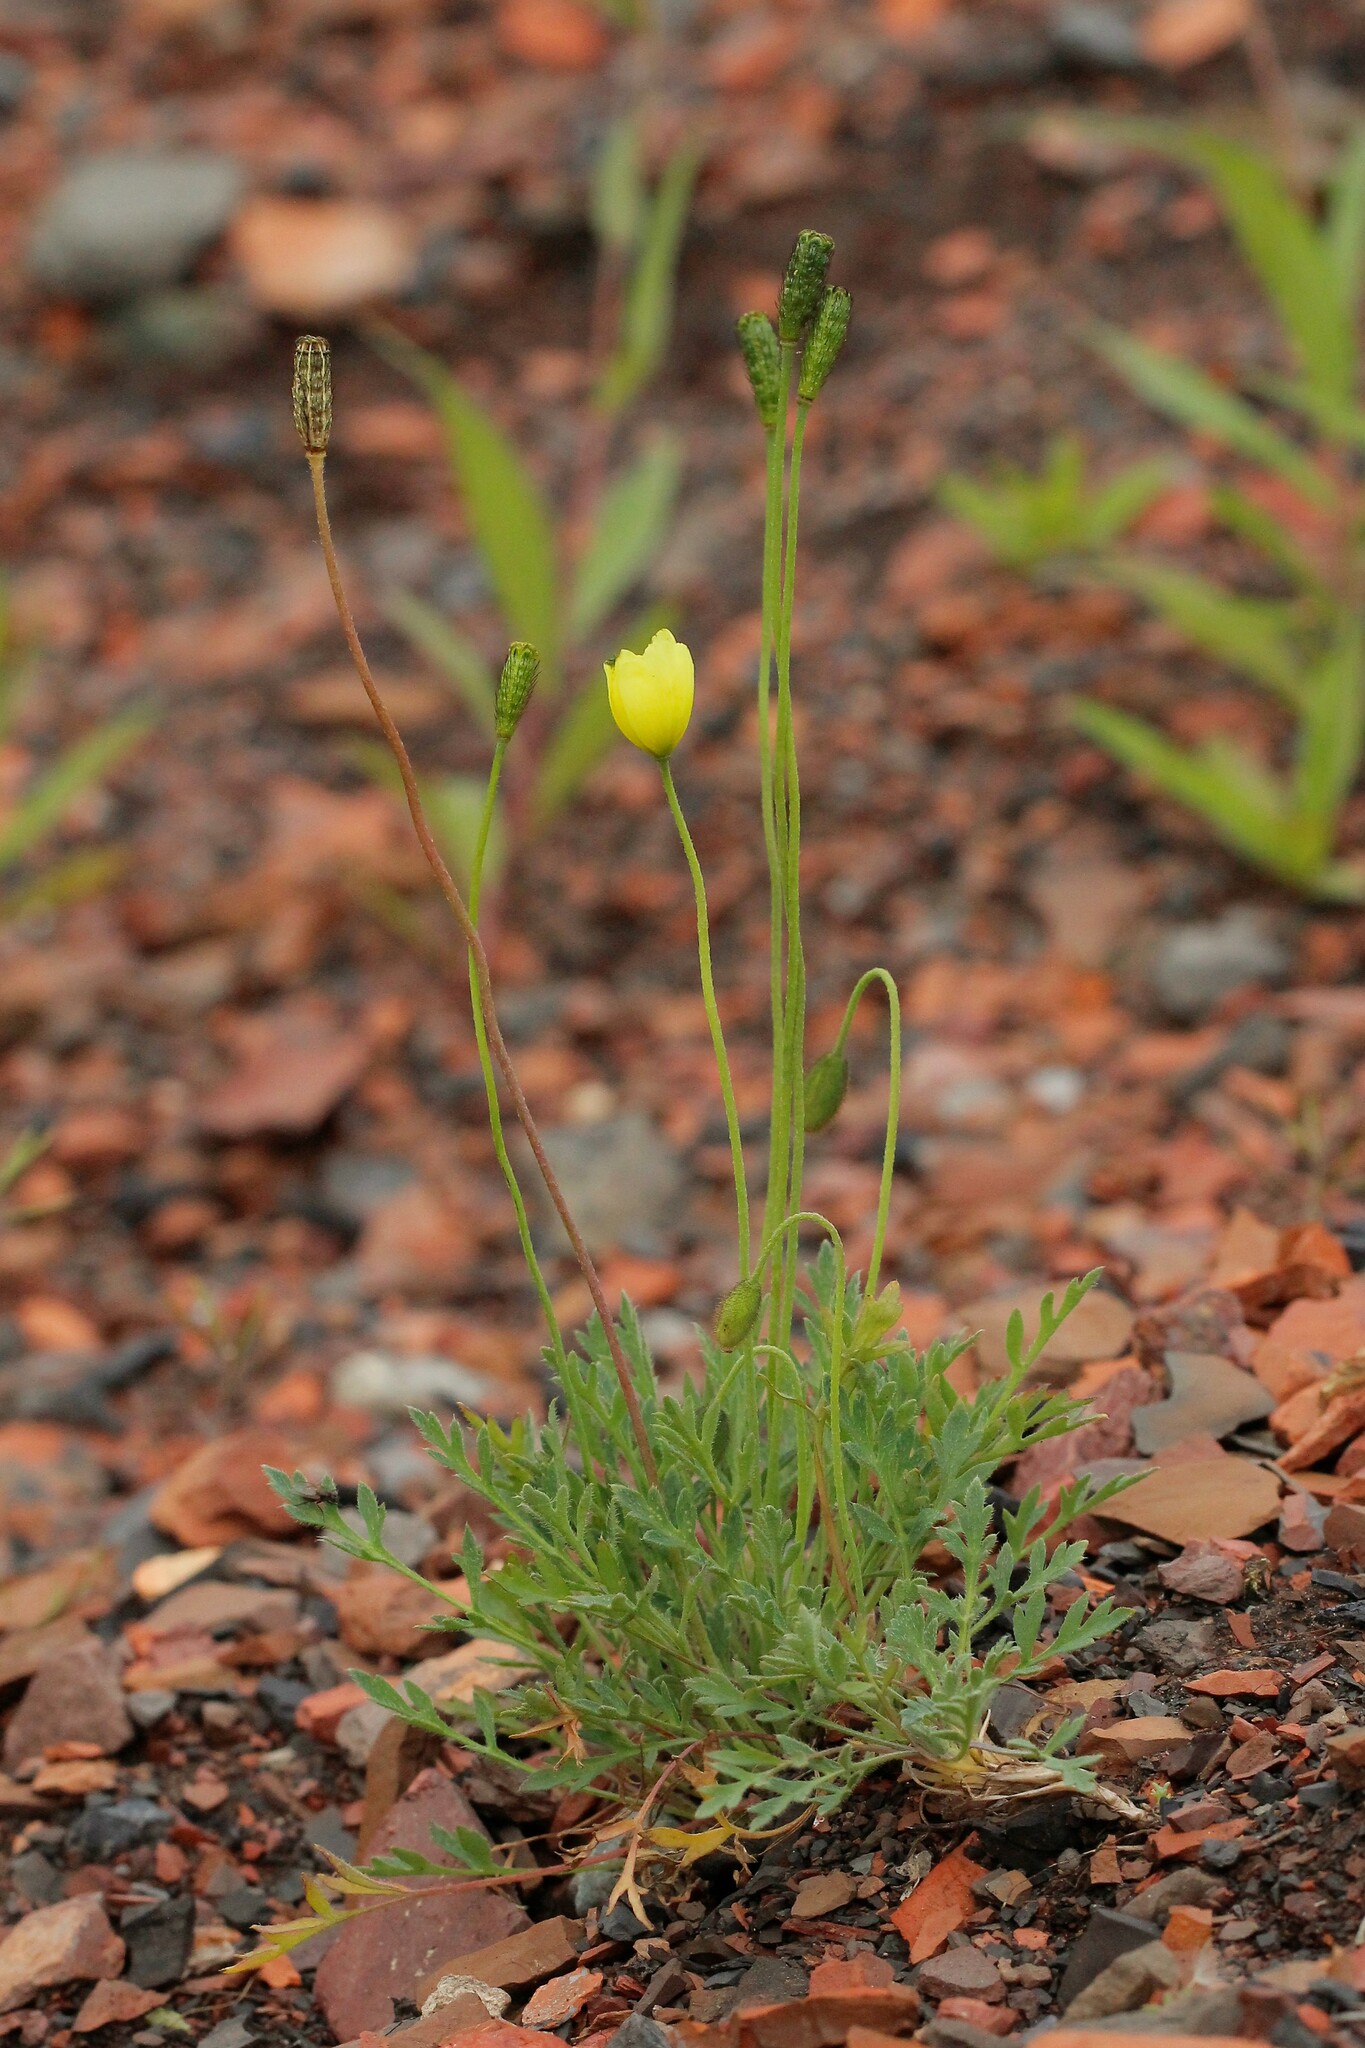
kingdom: Plantae
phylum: Tracheophyta
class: Magnoliopsida
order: Ranunculales
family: Papaveraceae
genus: Papaver
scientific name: Papaver lapponicum
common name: Lapland poppy
